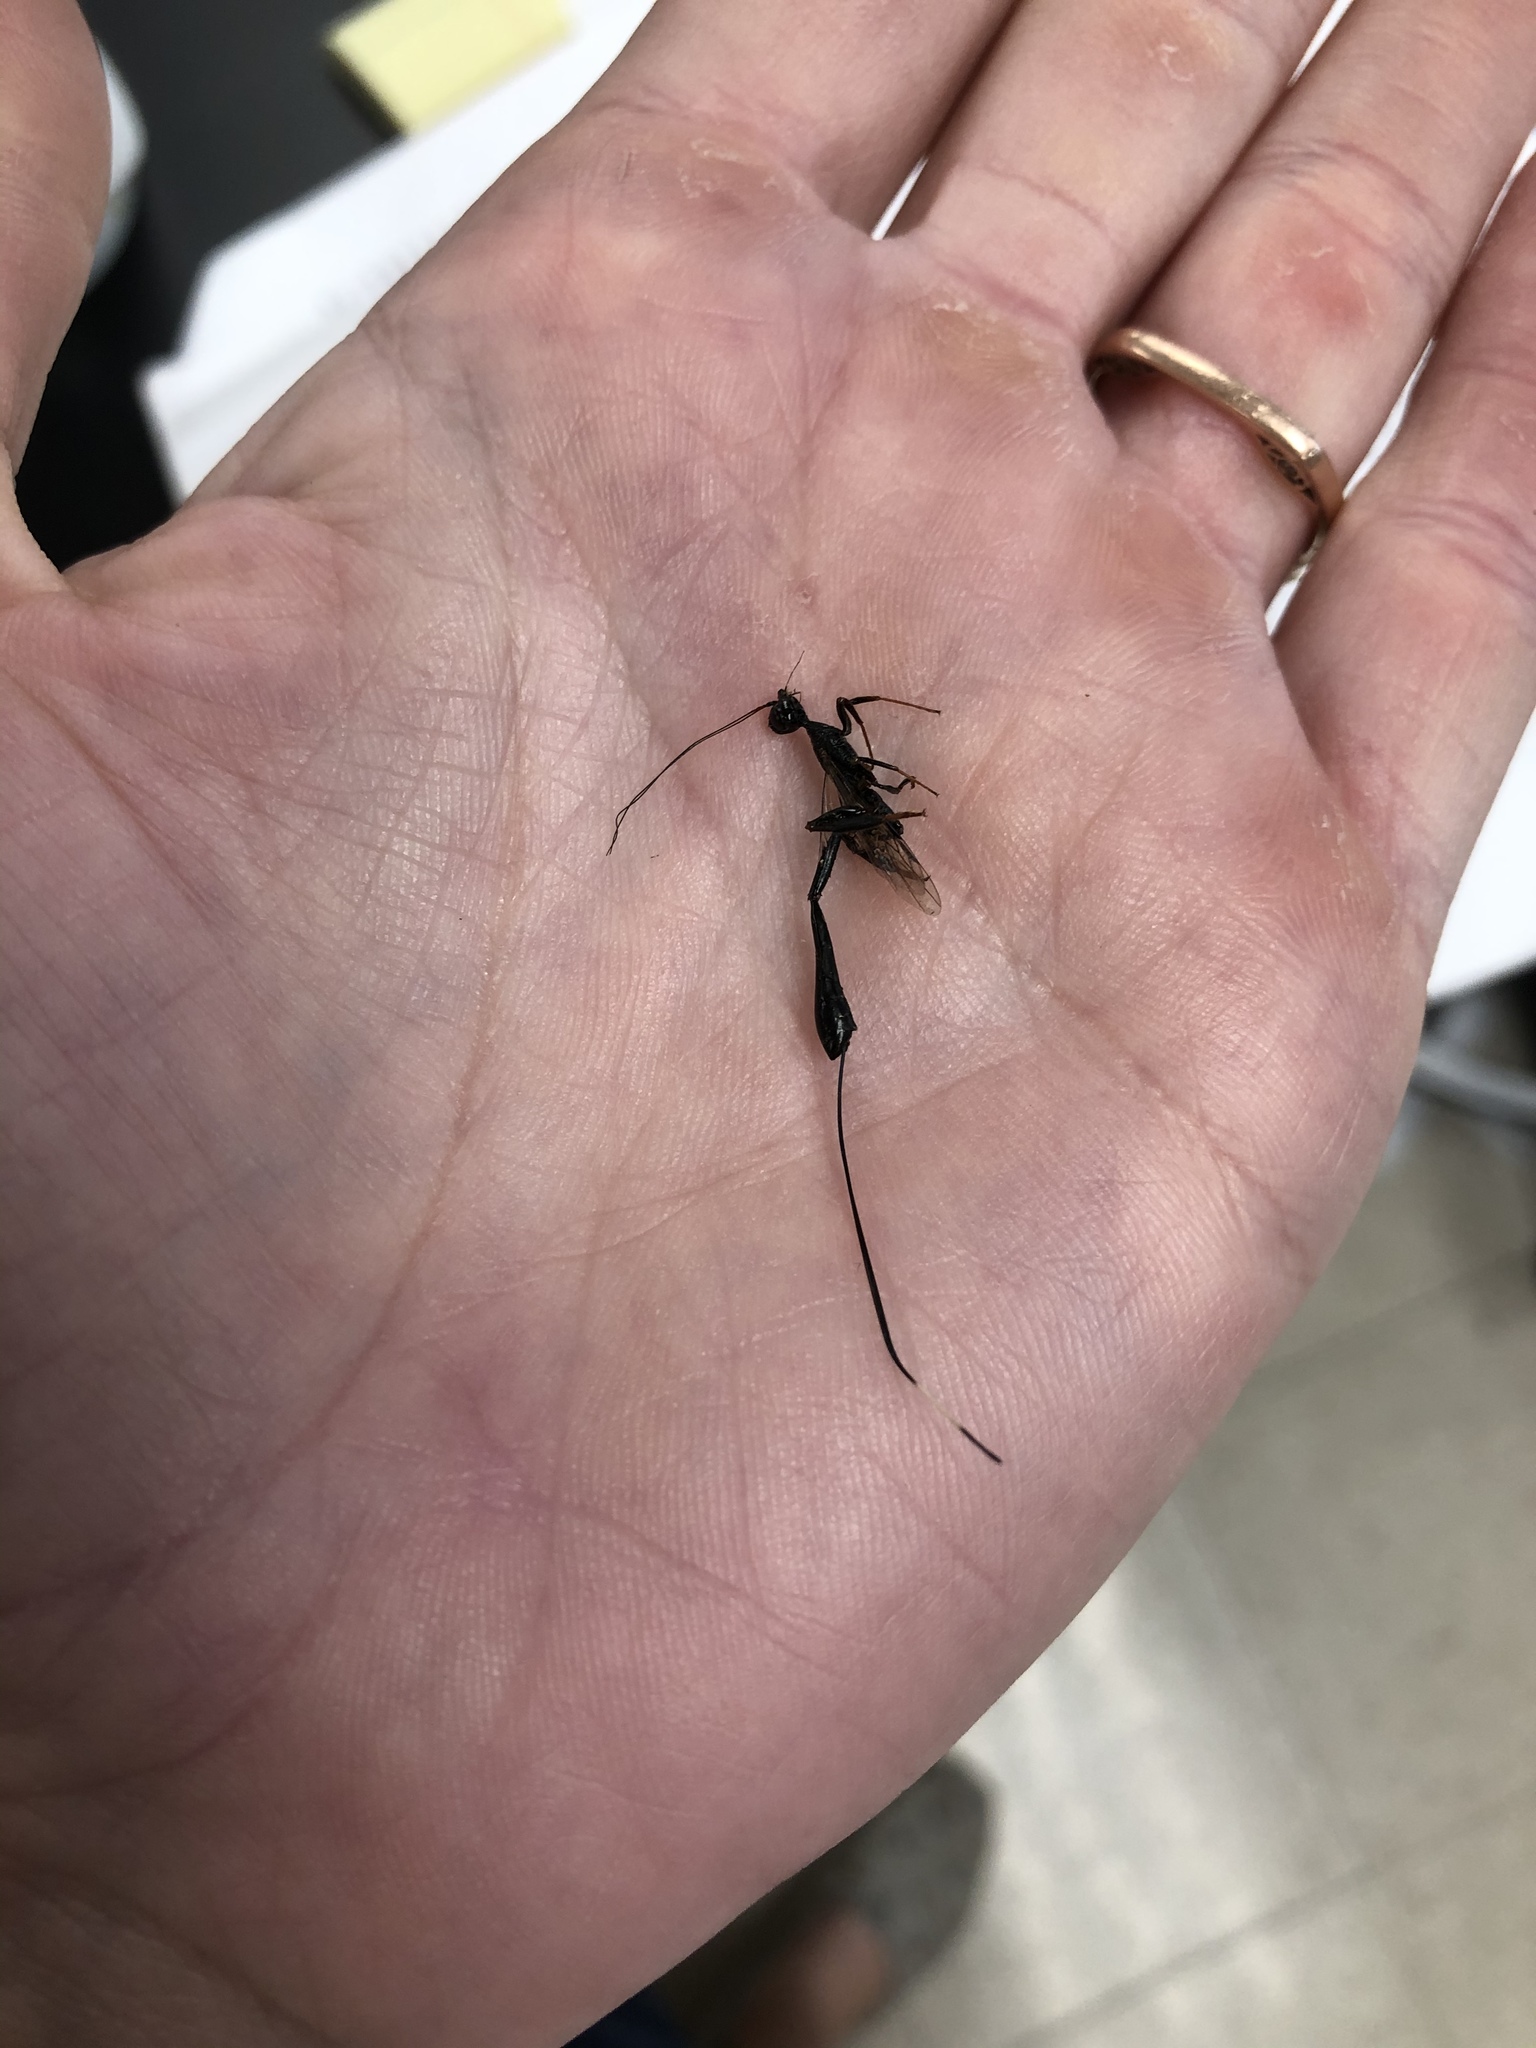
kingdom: Animalia
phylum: Arthropoda
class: Insecta
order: Hymenoptera
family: Stephanidae
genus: Megischus
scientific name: Megischus
